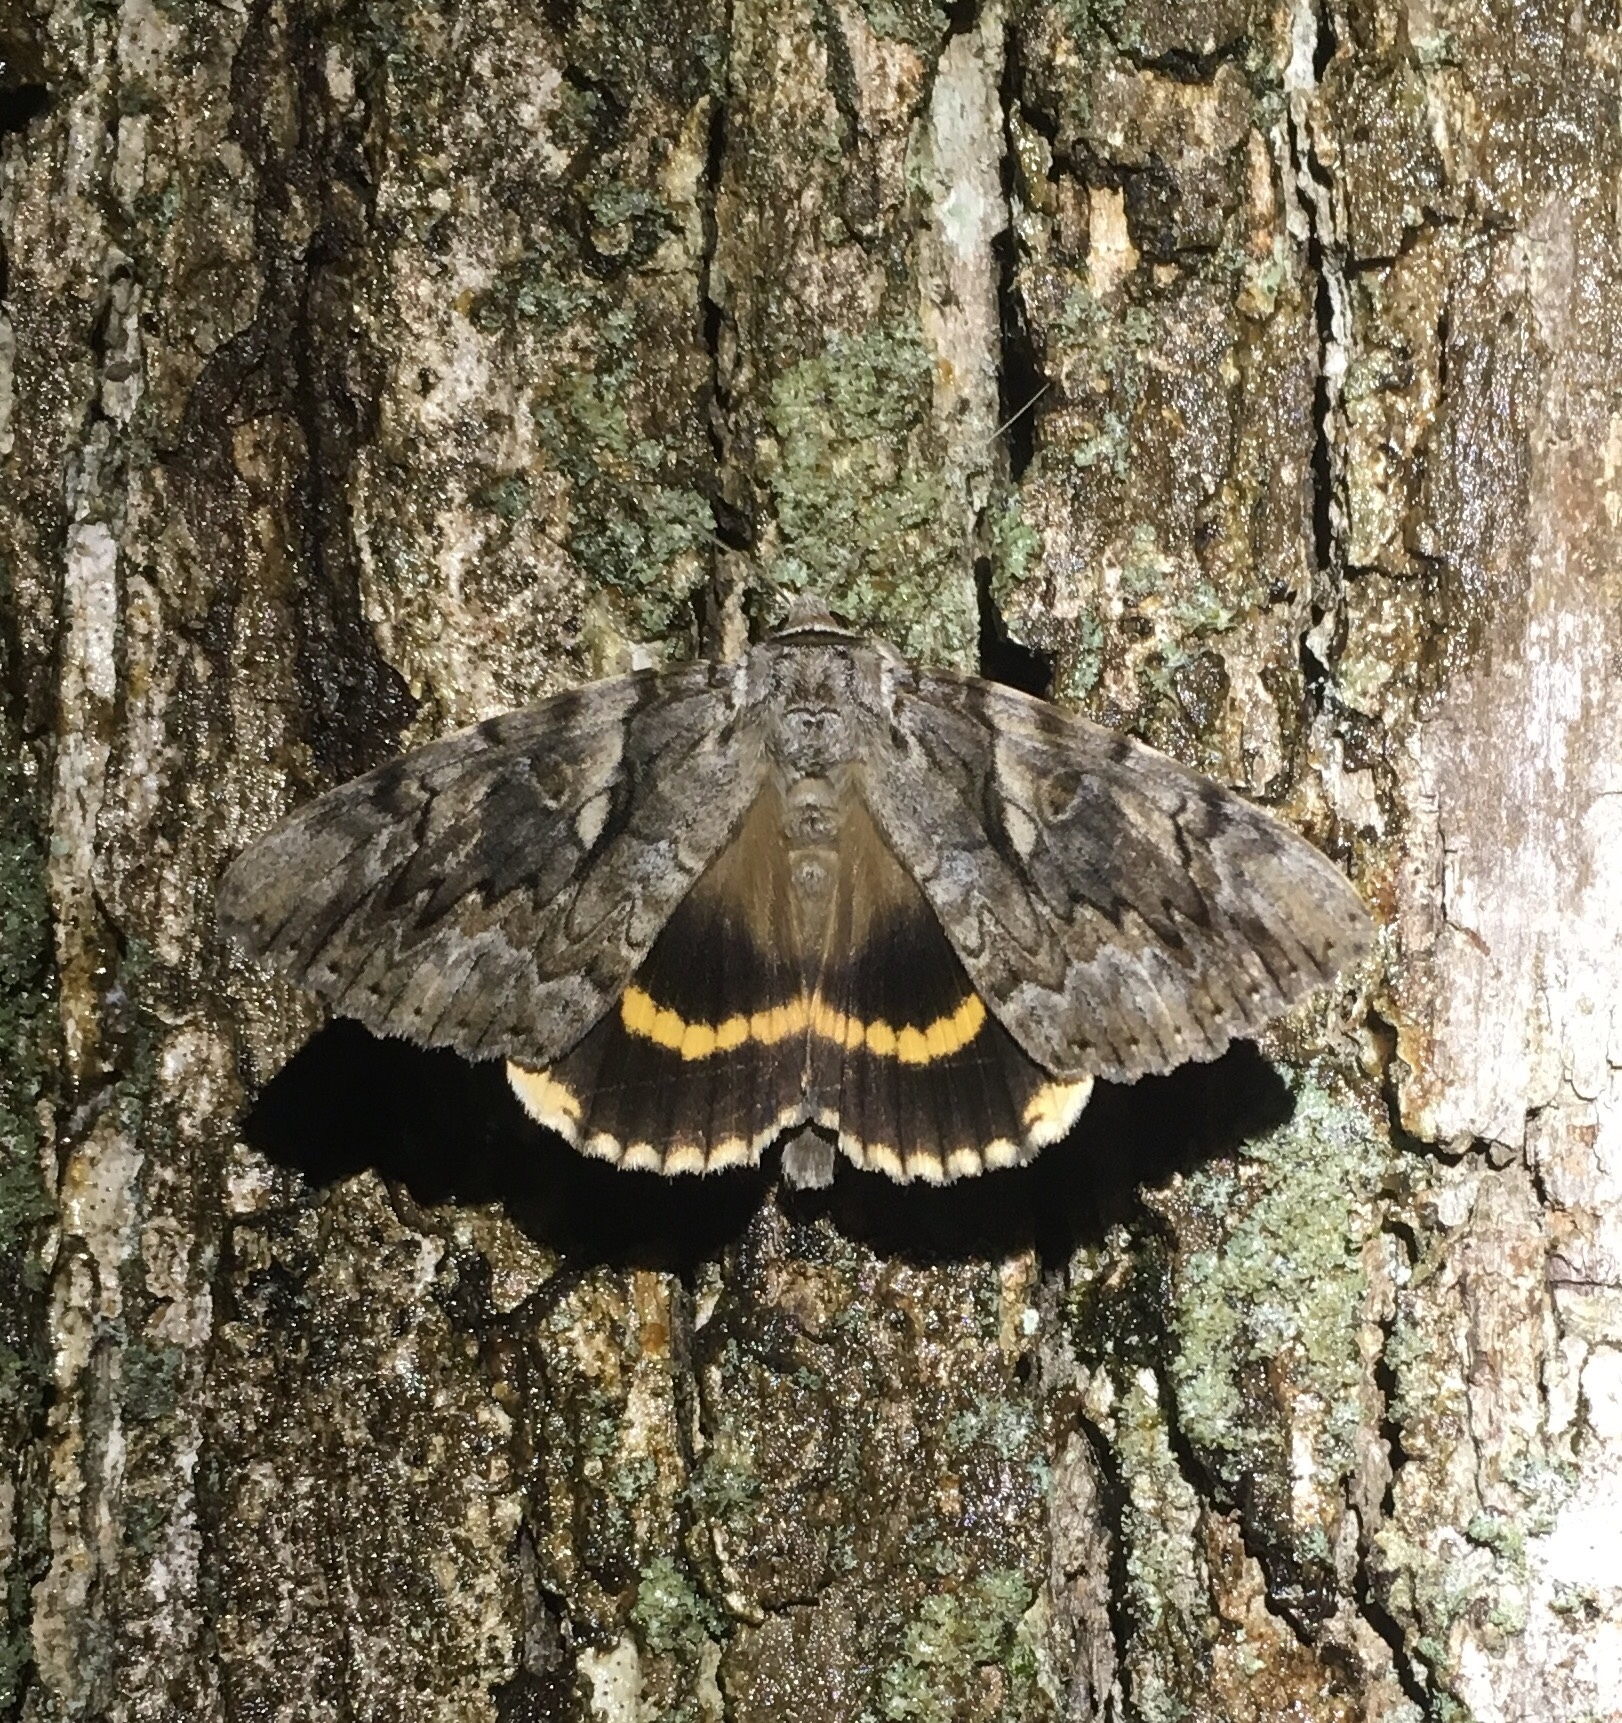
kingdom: Animalia
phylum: Arthropoda
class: Insecta
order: Lepidoptera
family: Erebidae
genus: Catocala
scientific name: Catocala cerogama
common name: Yellow banded underwing
